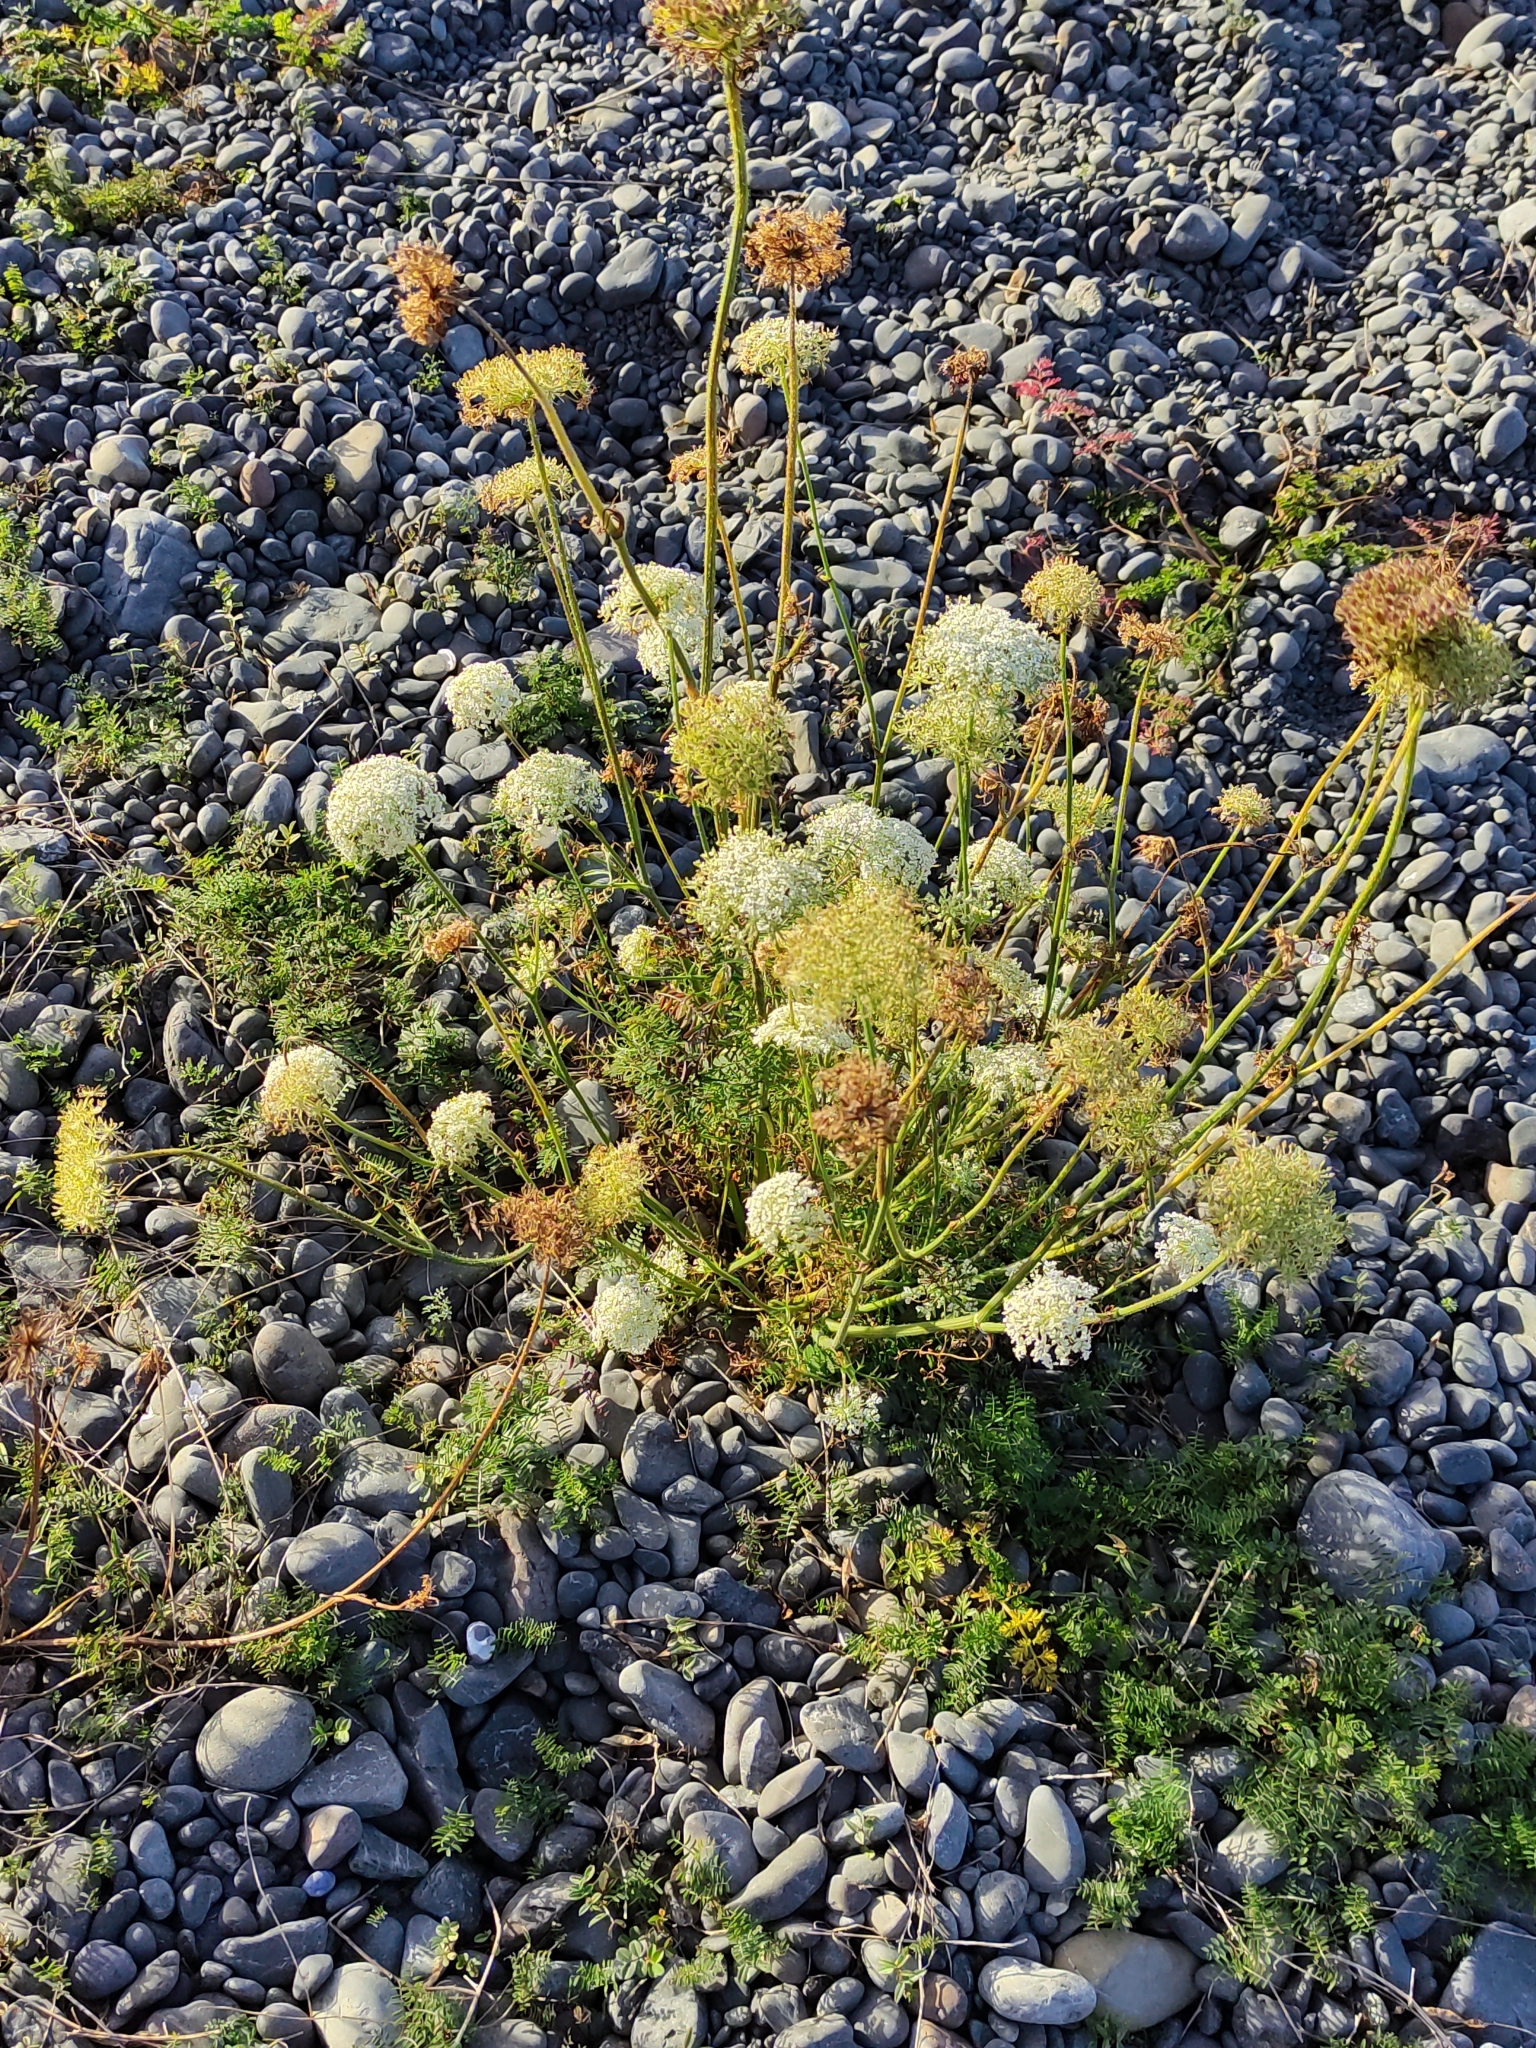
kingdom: Plantae
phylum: Tracheophyta
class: Magnoliopsida
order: Apiales
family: Apiaceae
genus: Daucus
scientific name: Daucus carota
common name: Wild carrot
